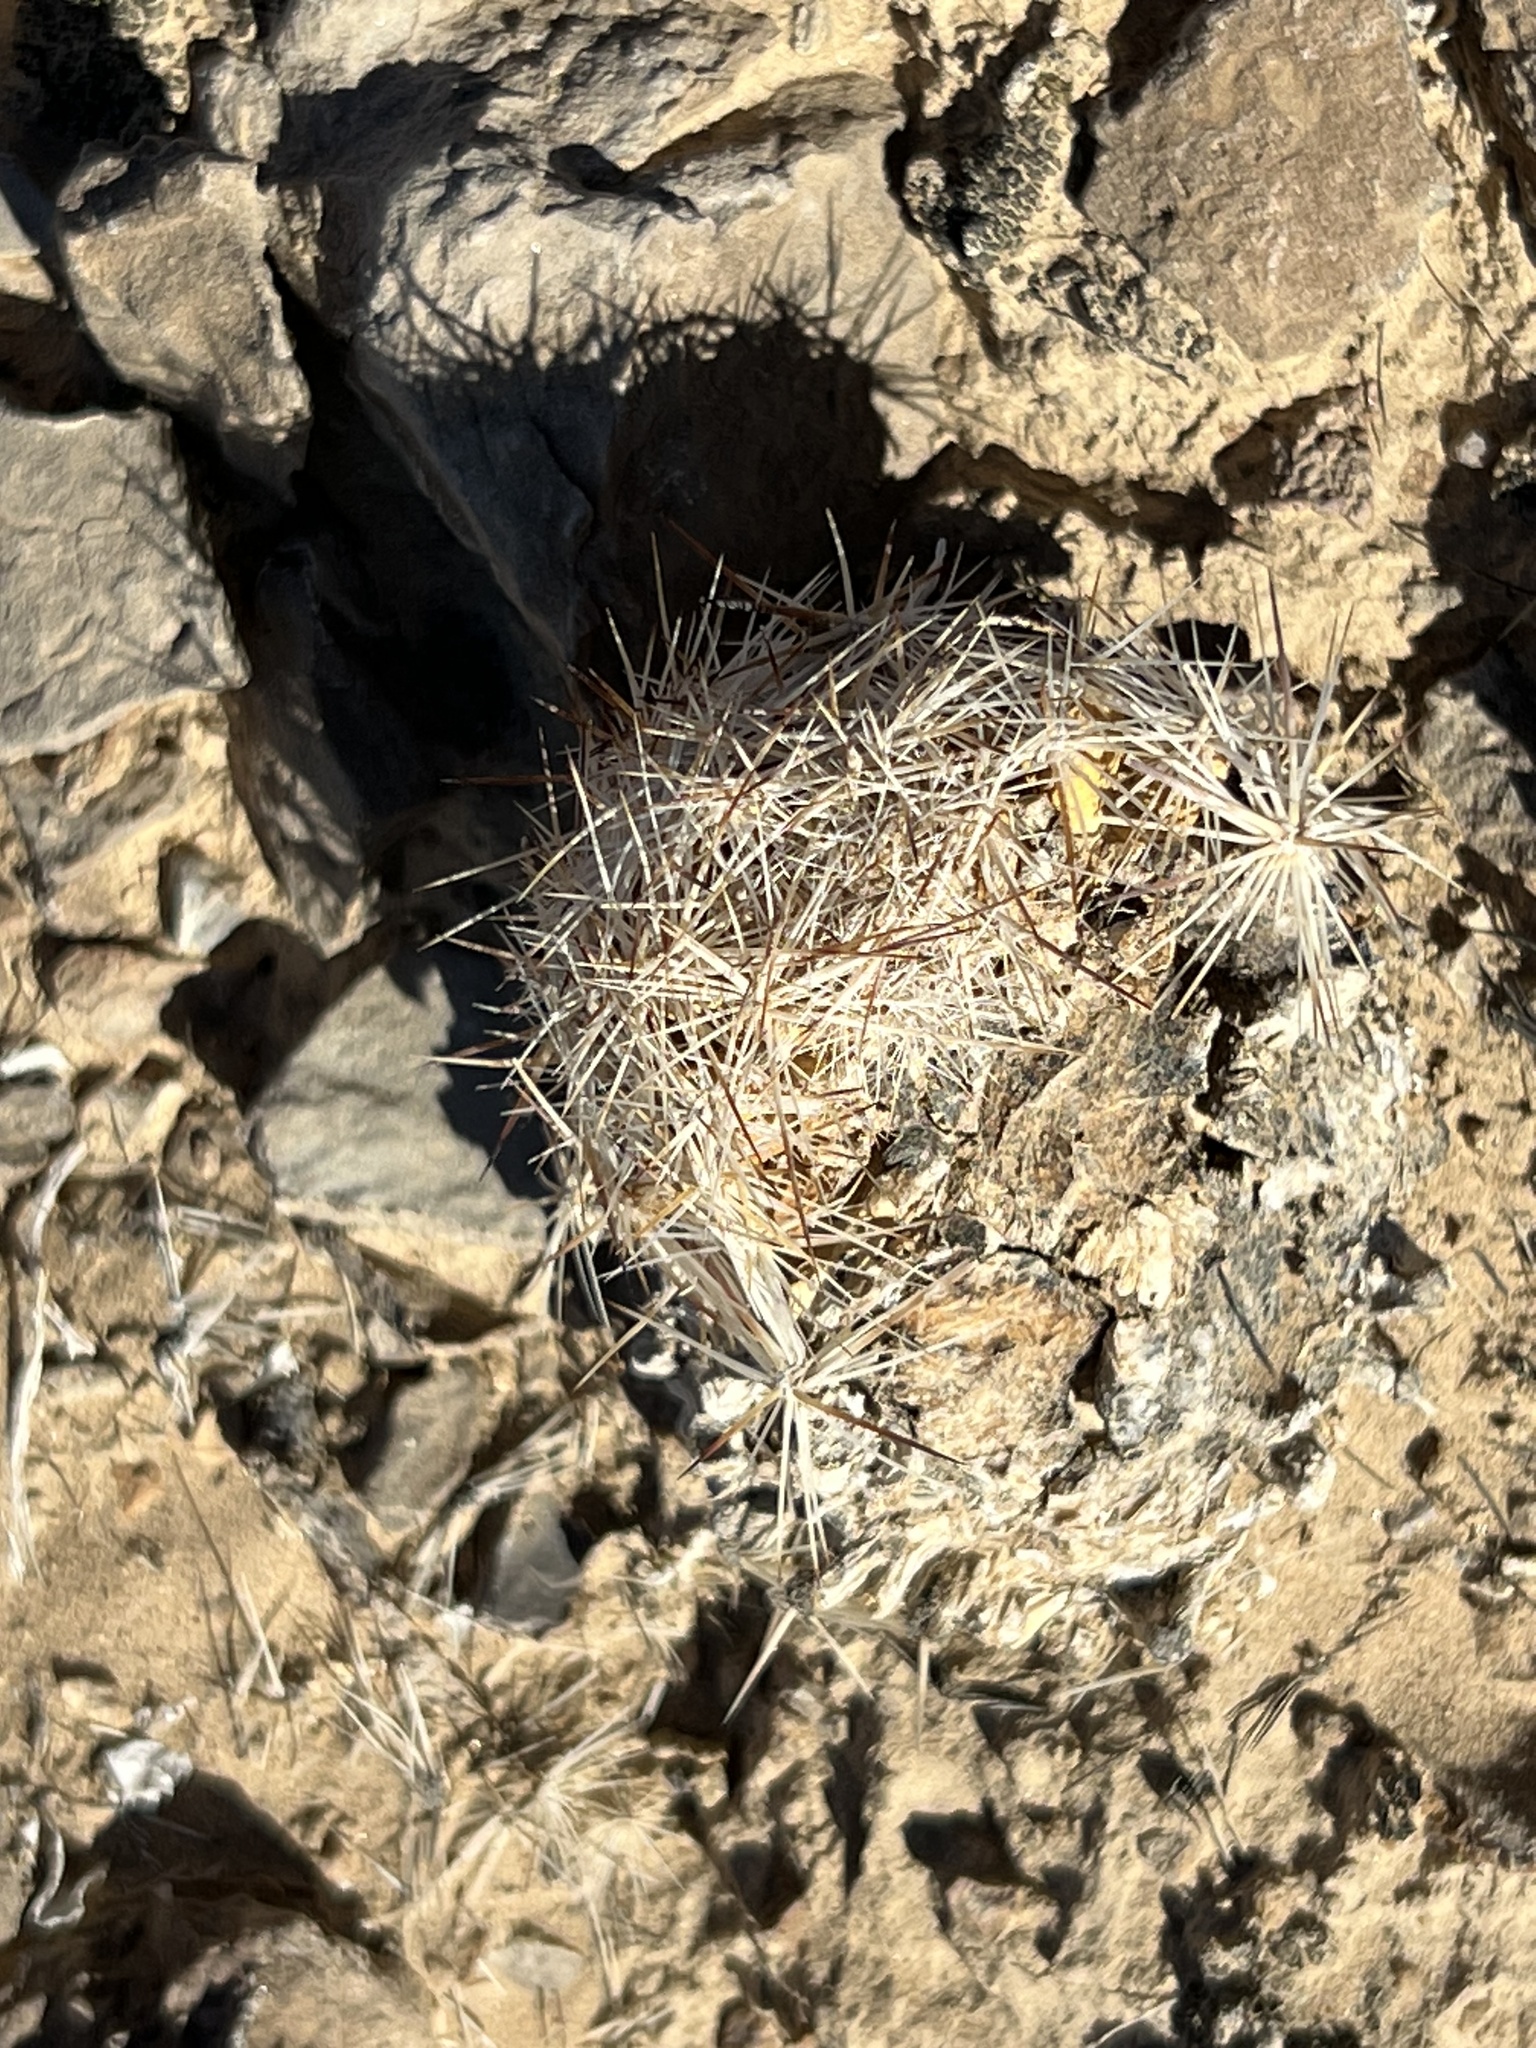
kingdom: Plantae
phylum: Tracheophyta
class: Magnoliopsida
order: Caryophyllales
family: Cactaceae
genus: Pelecyphora
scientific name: Pelecyphora dasyacantha
